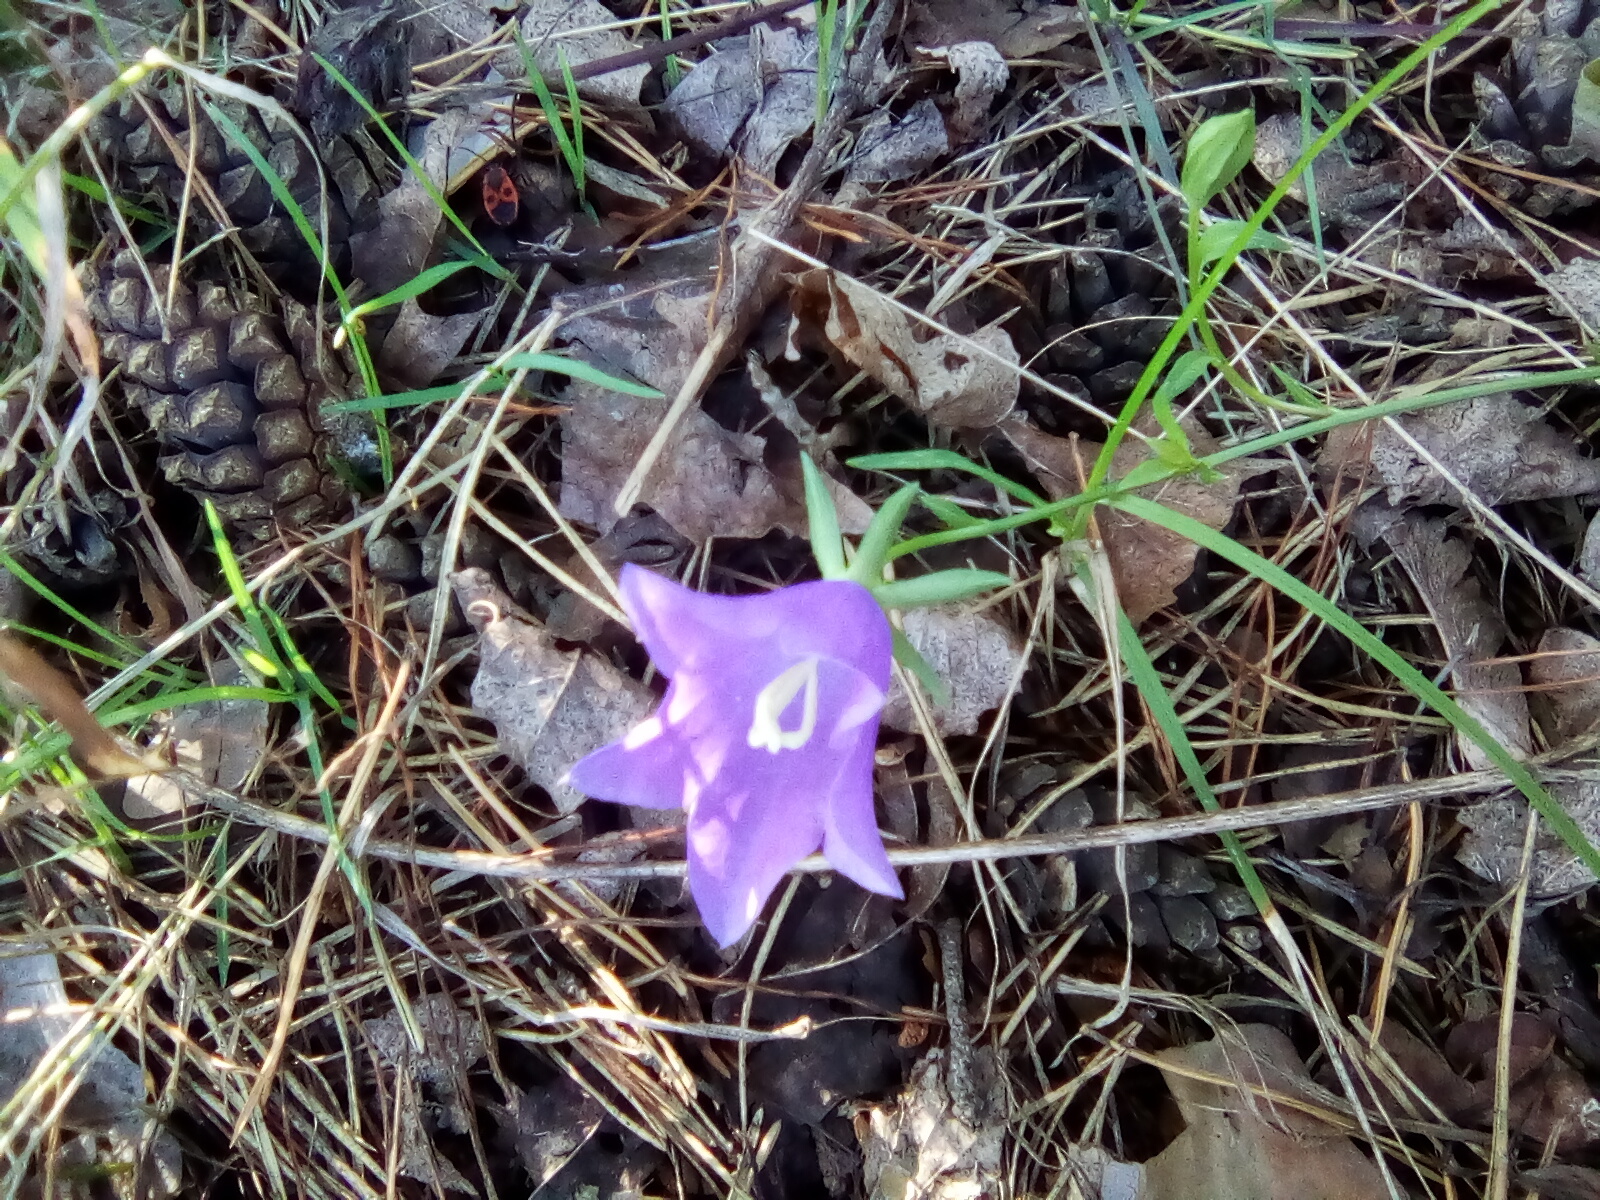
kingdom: Plantae
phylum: Tracheophyta
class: Magnoliopsida
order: Asterales
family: Campanulaceae
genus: Campanula
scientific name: Campanula persicifolia
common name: Peach-leaved bellflower
